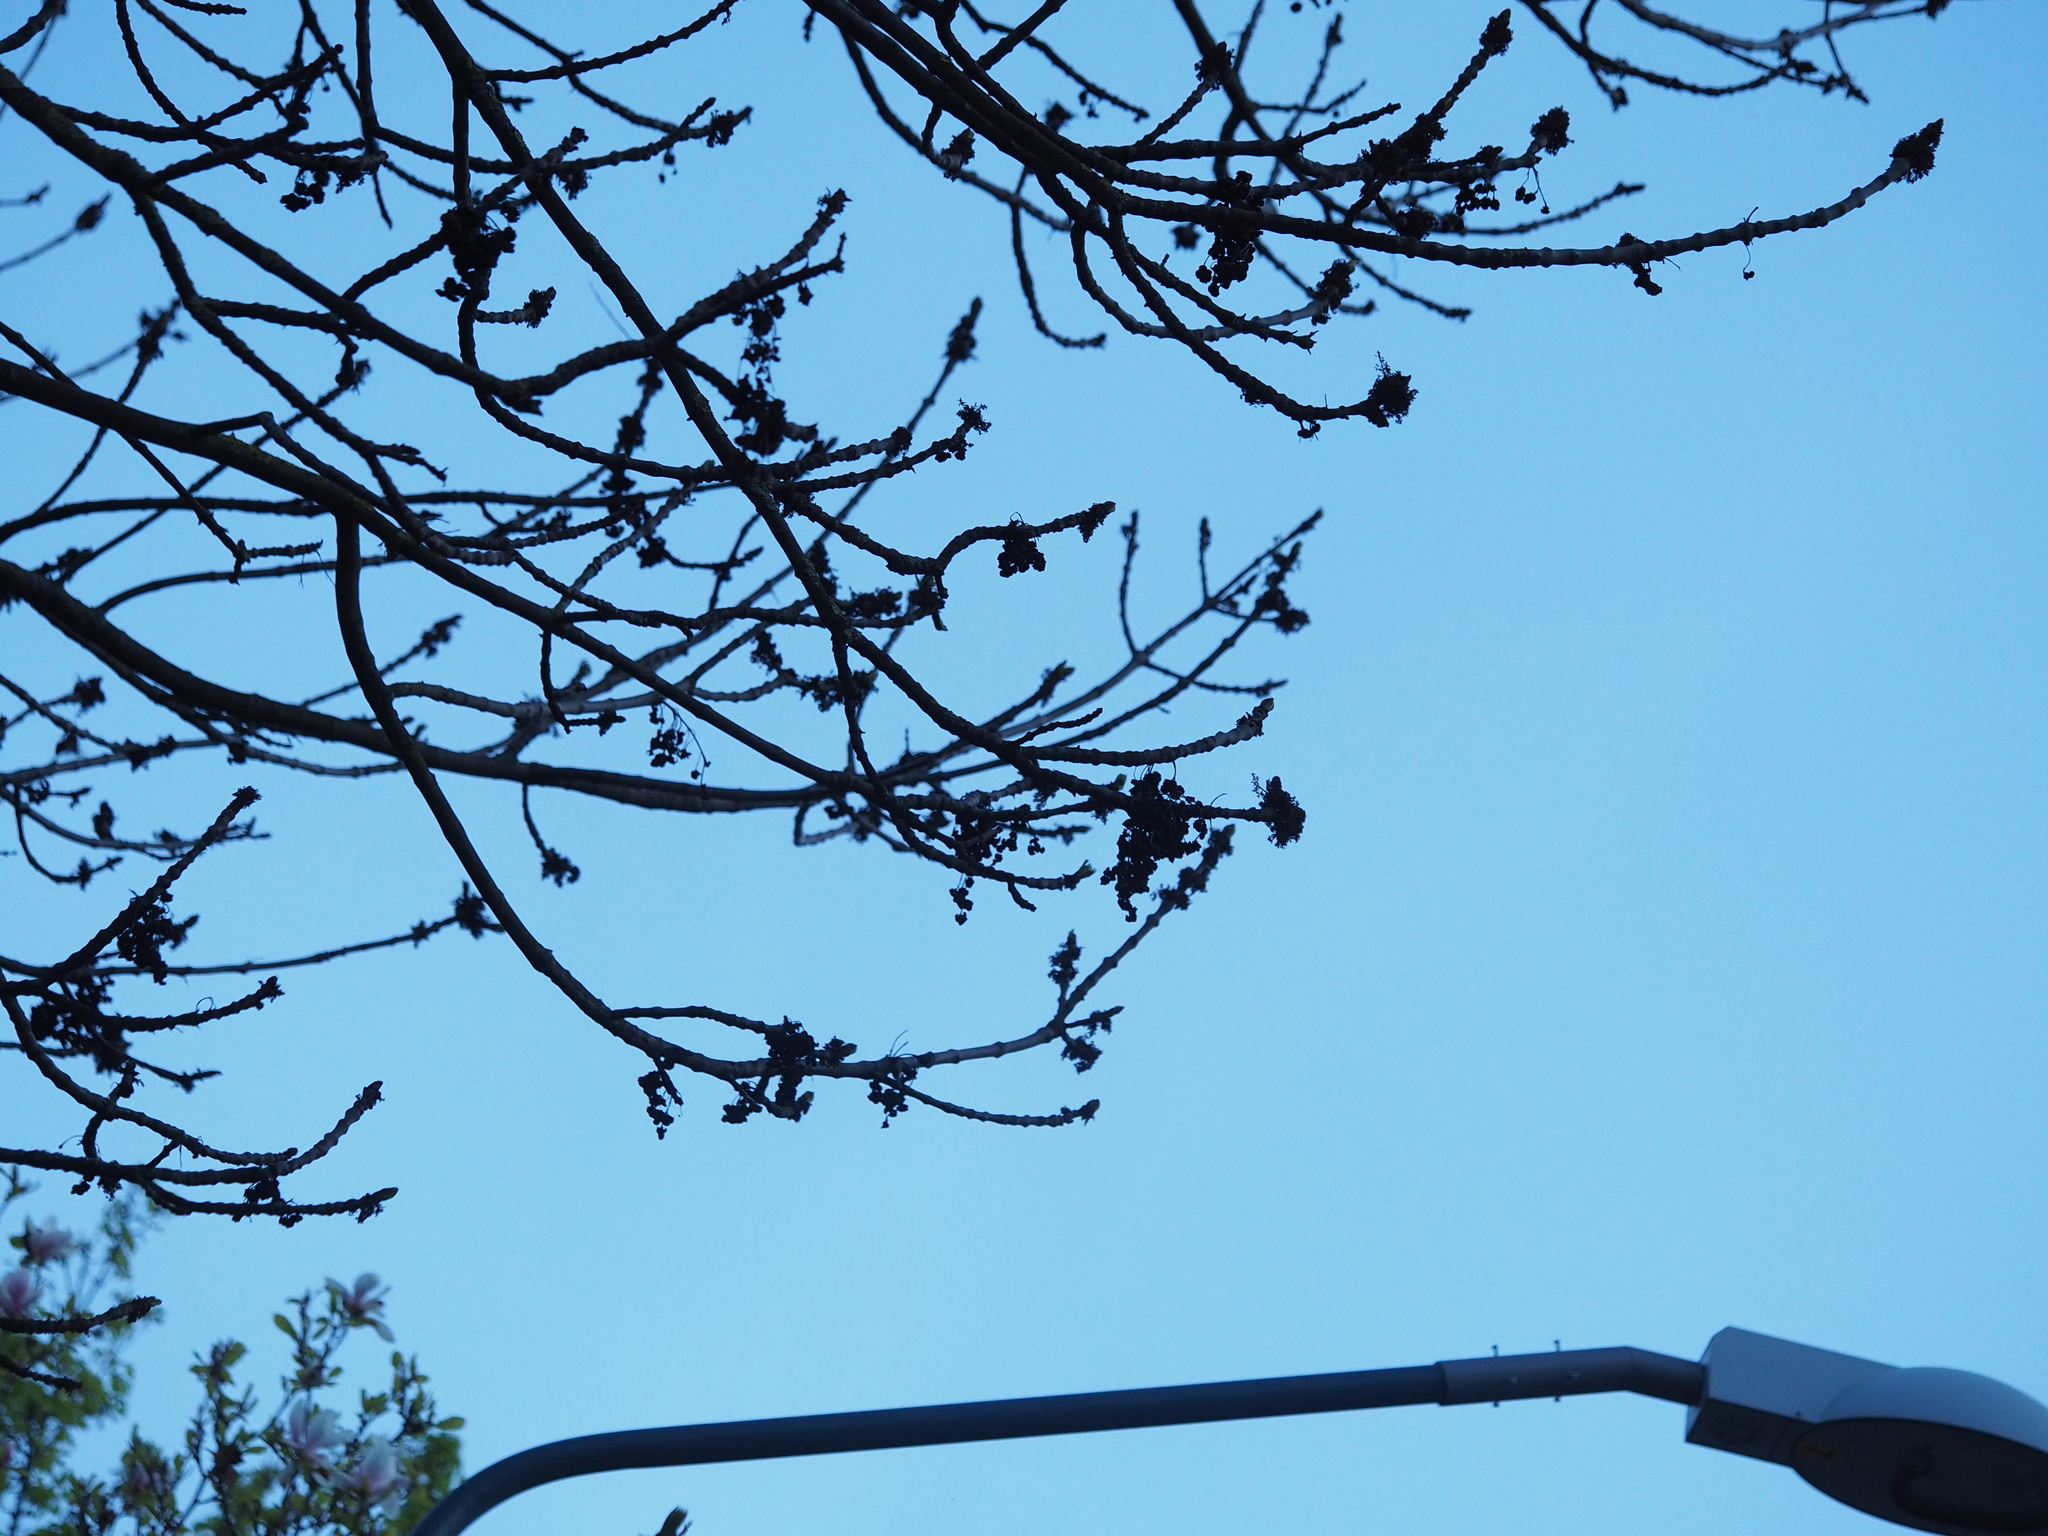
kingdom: Animalia
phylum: Arthropoda
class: Arachnida
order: Trombidiformes
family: Eriophyidae
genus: Aceria
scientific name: Aceria fraxinivora
